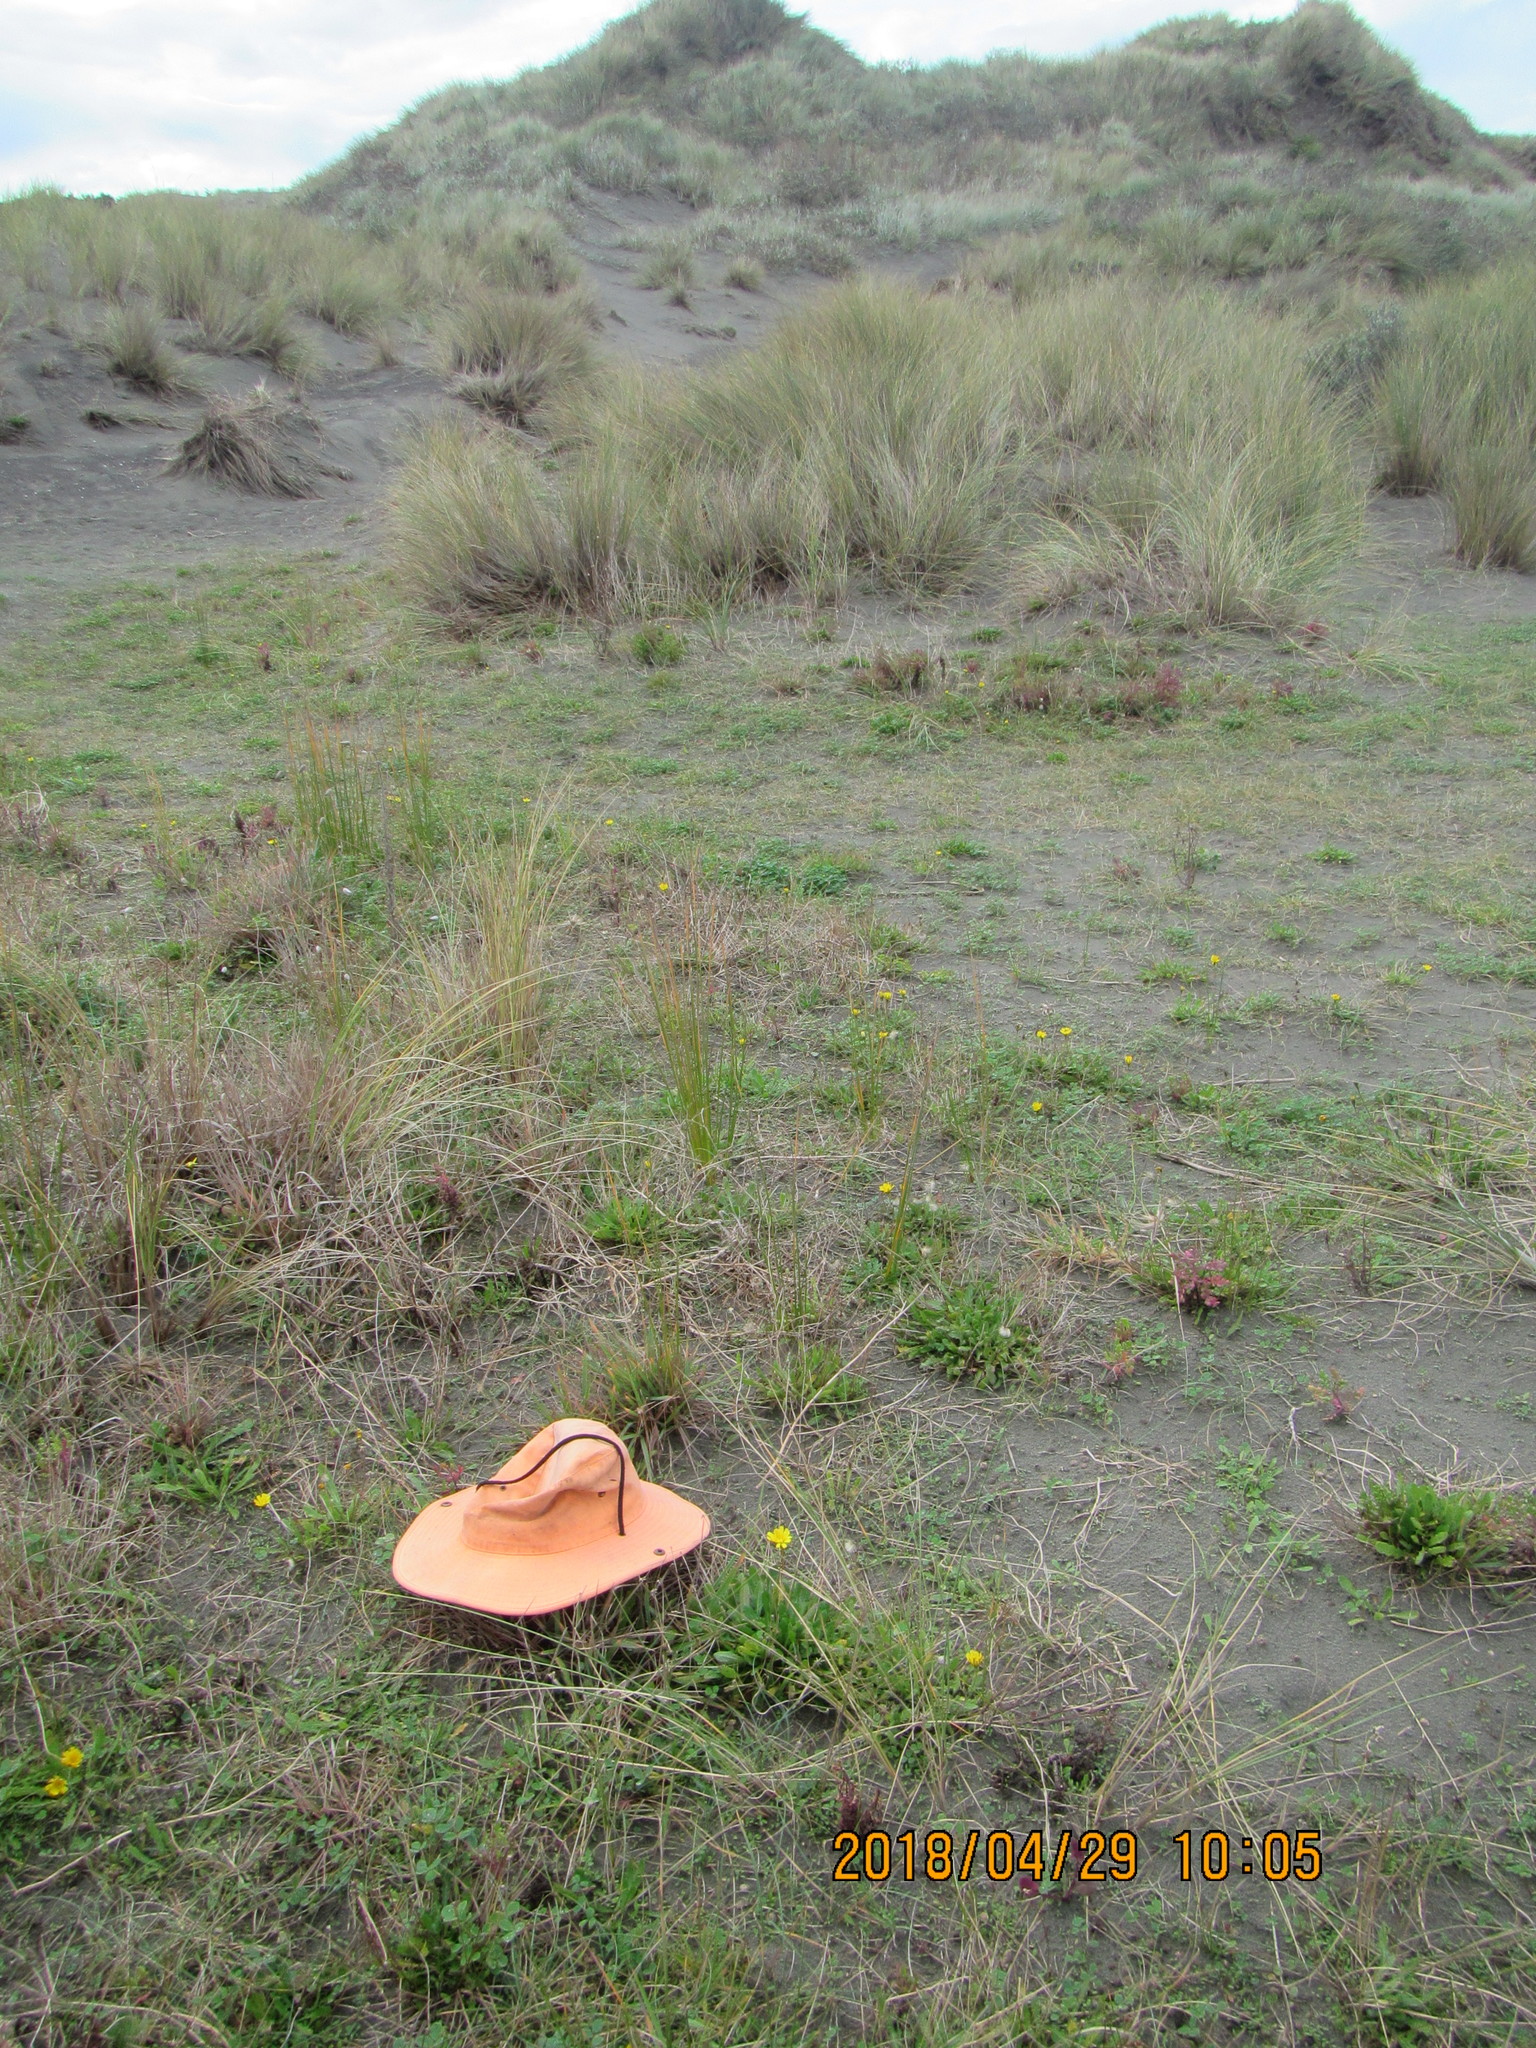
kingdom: Plantae
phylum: Tracheophyta
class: Magnoliopsida
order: Asterales
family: Asteraceae
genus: Hypochaeris
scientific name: Hypochaeris radicata
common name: Flatweed
